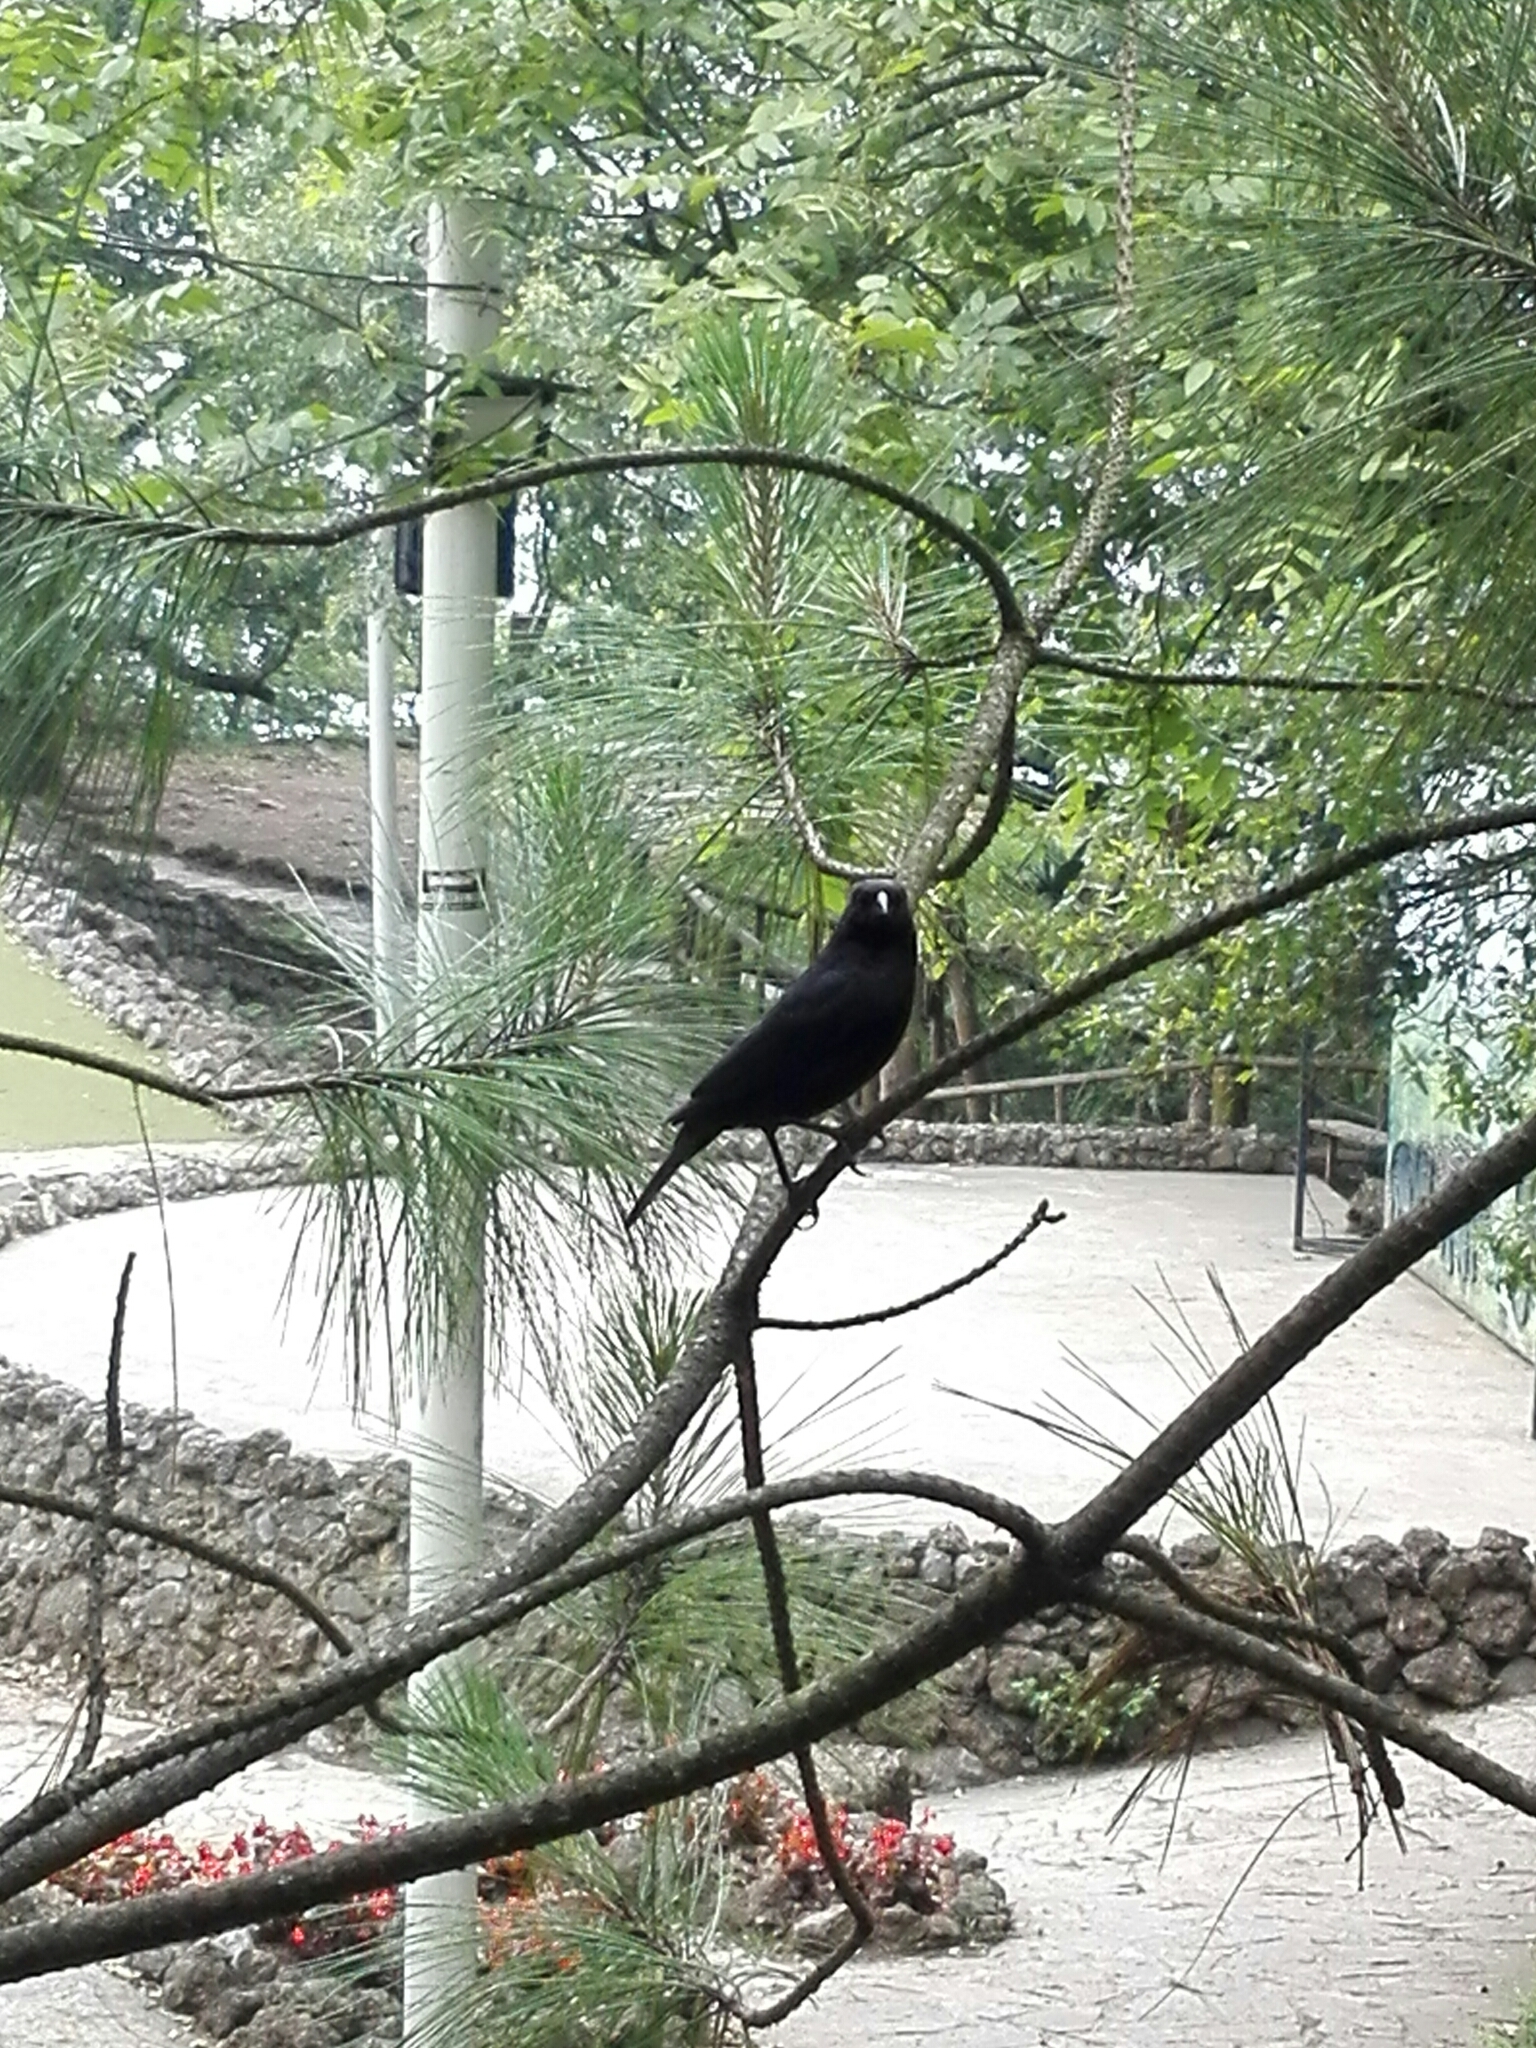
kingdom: Animalia
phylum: Chordata
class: Aves
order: Passeriformes
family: Icteridae
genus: Molothrus
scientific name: Molothrus aeneus
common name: Bronzed cowbird
